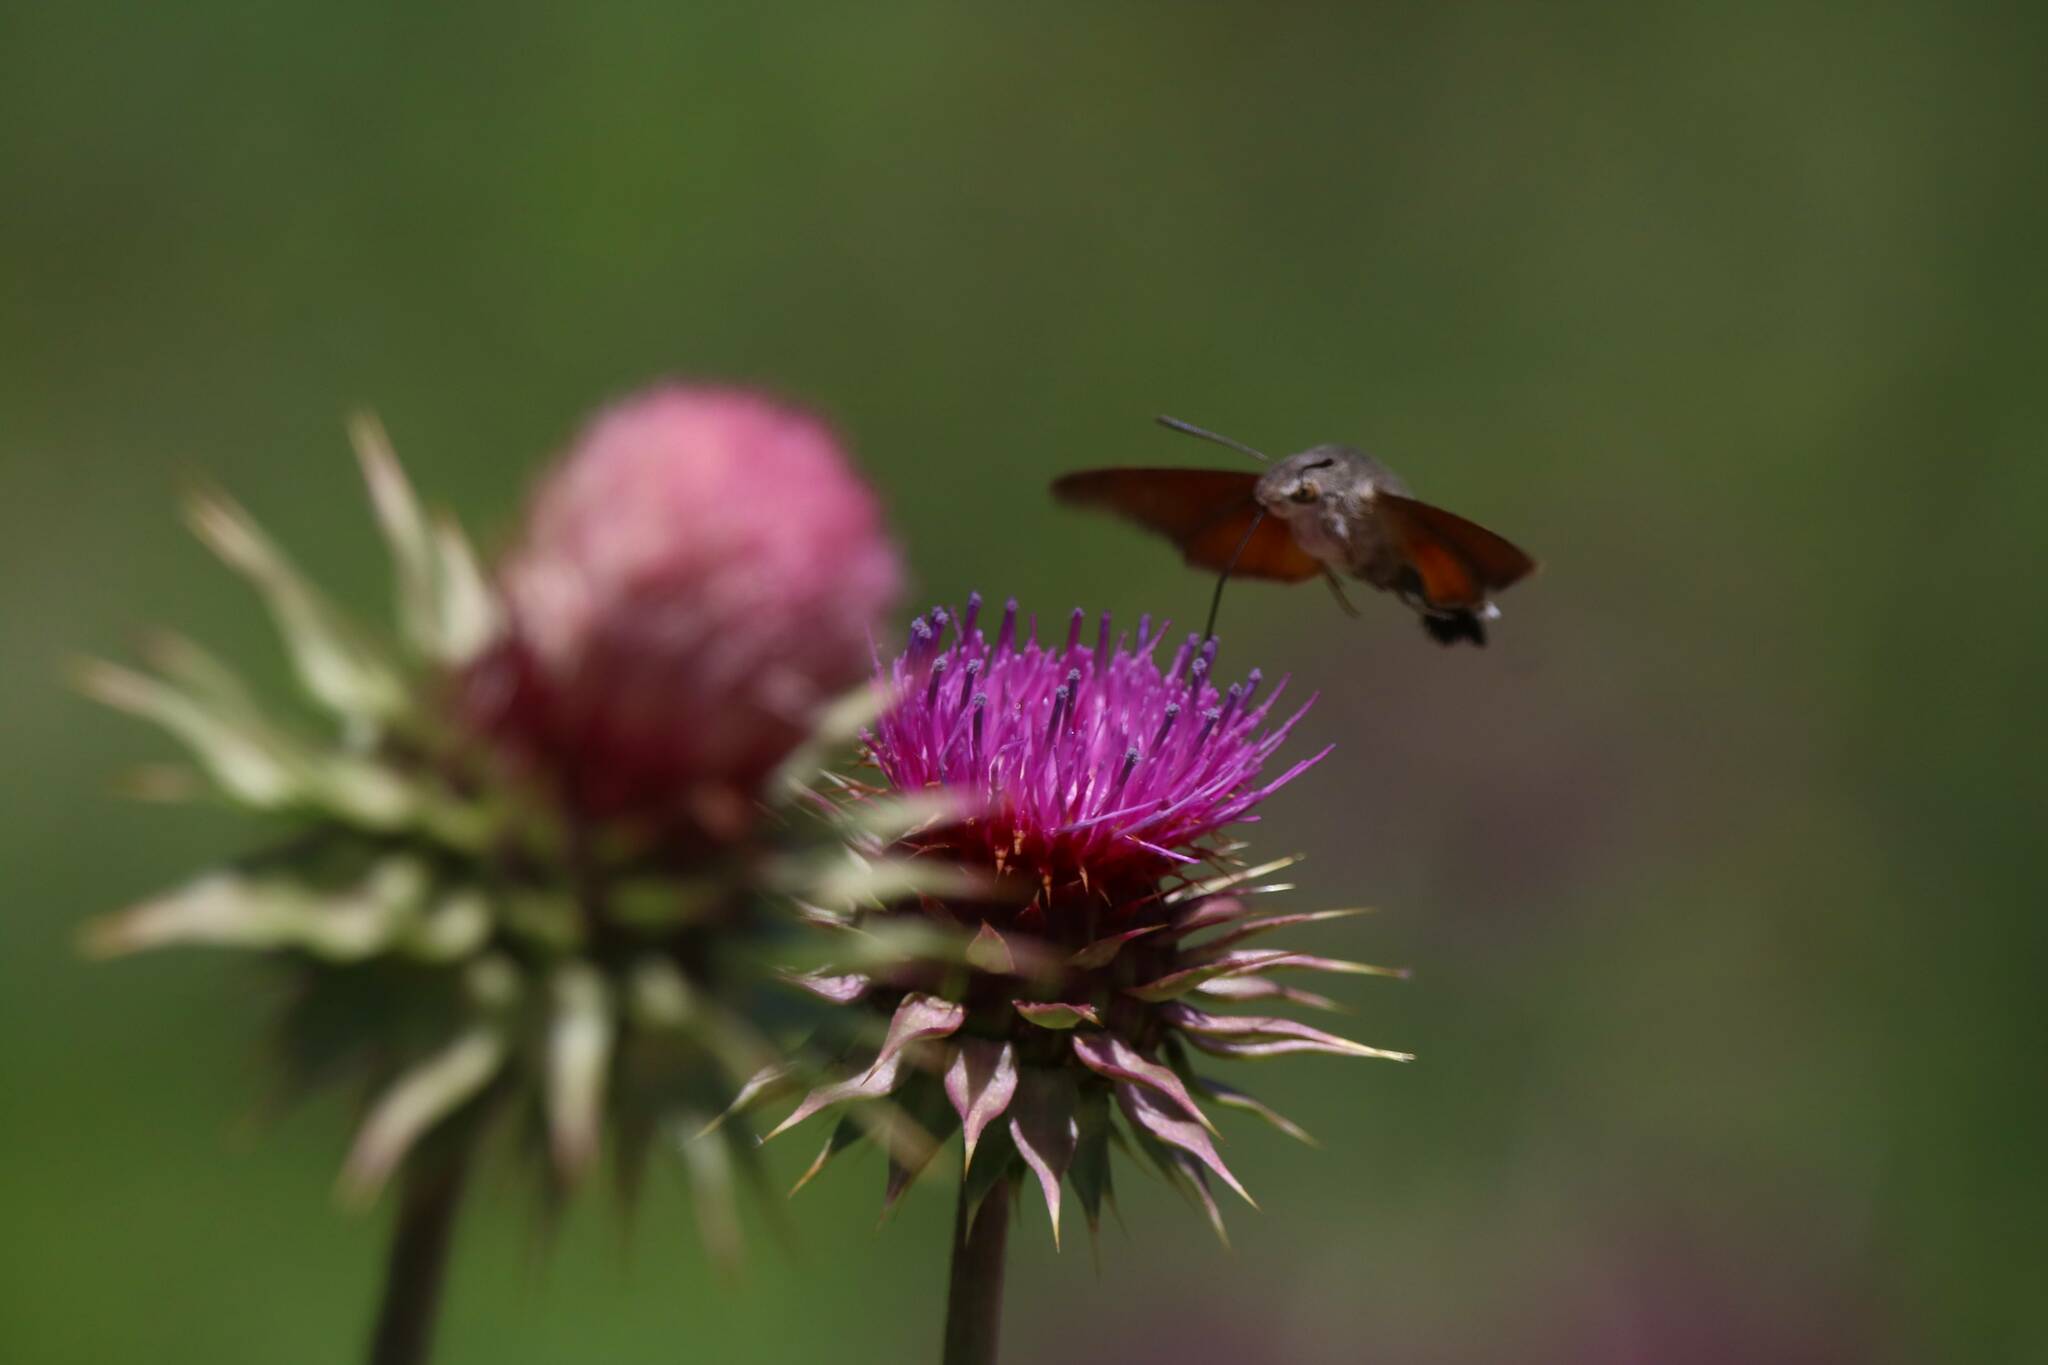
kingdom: Animalia
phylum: Arthropoda
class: Insecta
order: Lepidoptera
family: Sphingidae
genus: Macroglossum
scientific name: Macroglossum stellatarum
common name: Humming-bird hawk-moth
